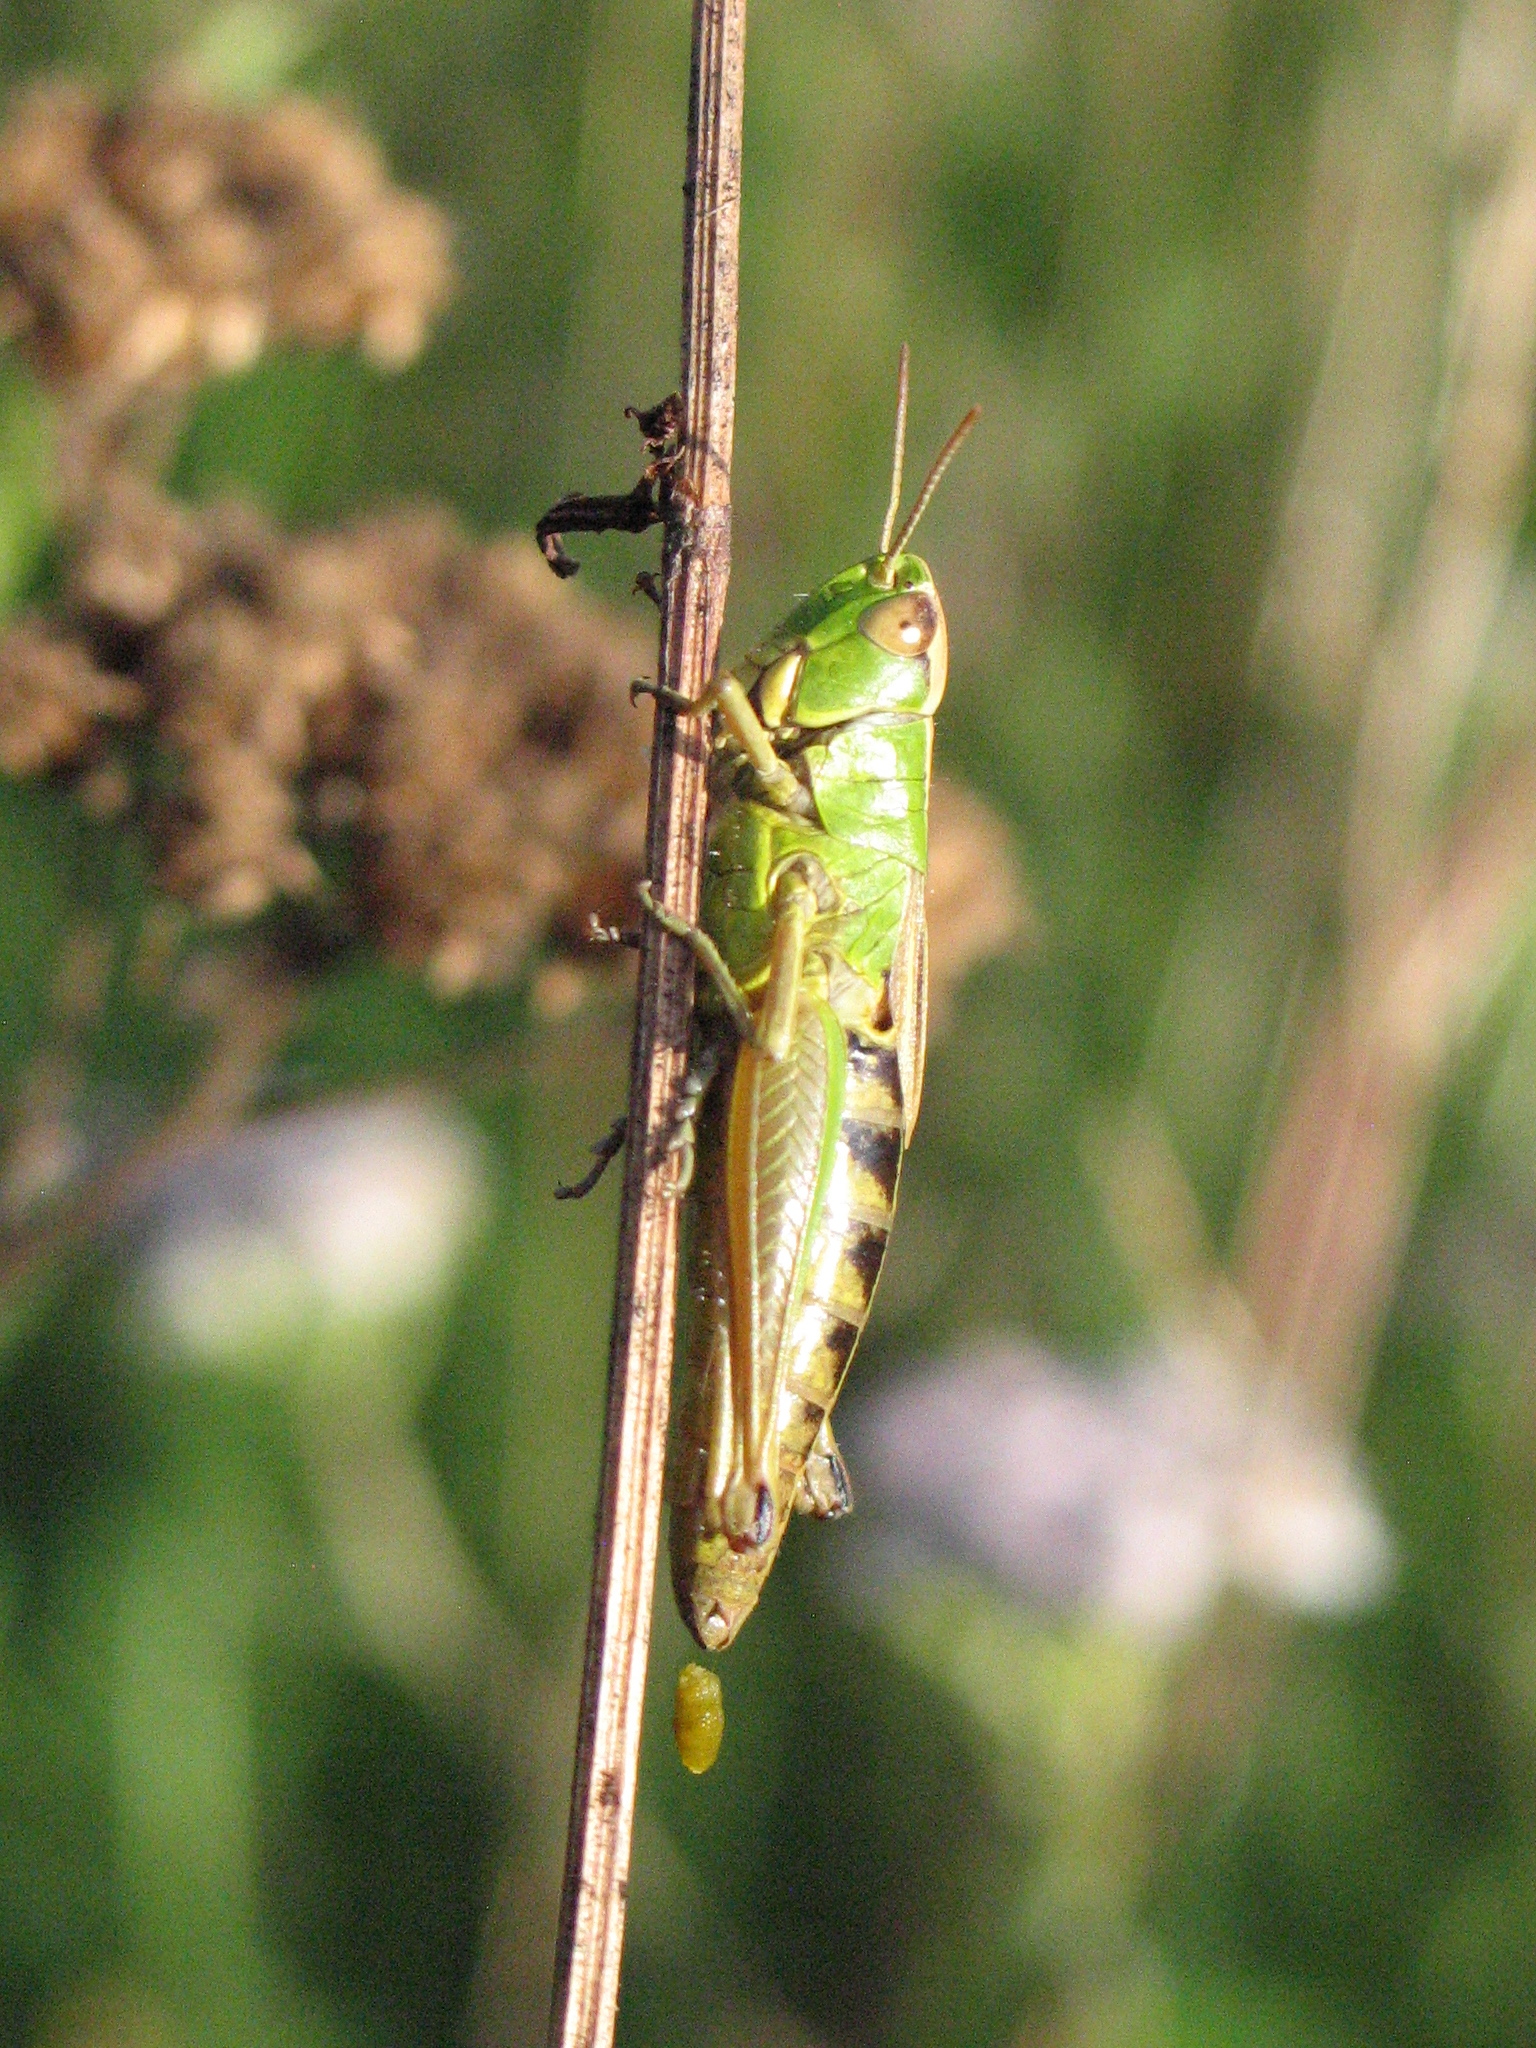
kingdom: Animalia
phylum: Arthropoda
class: Insecta
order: Orthoptera
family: Acrididae
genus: Pseudochorthippus
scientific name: Pseudochorthippus parallelus
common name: Meadow grasshopper
